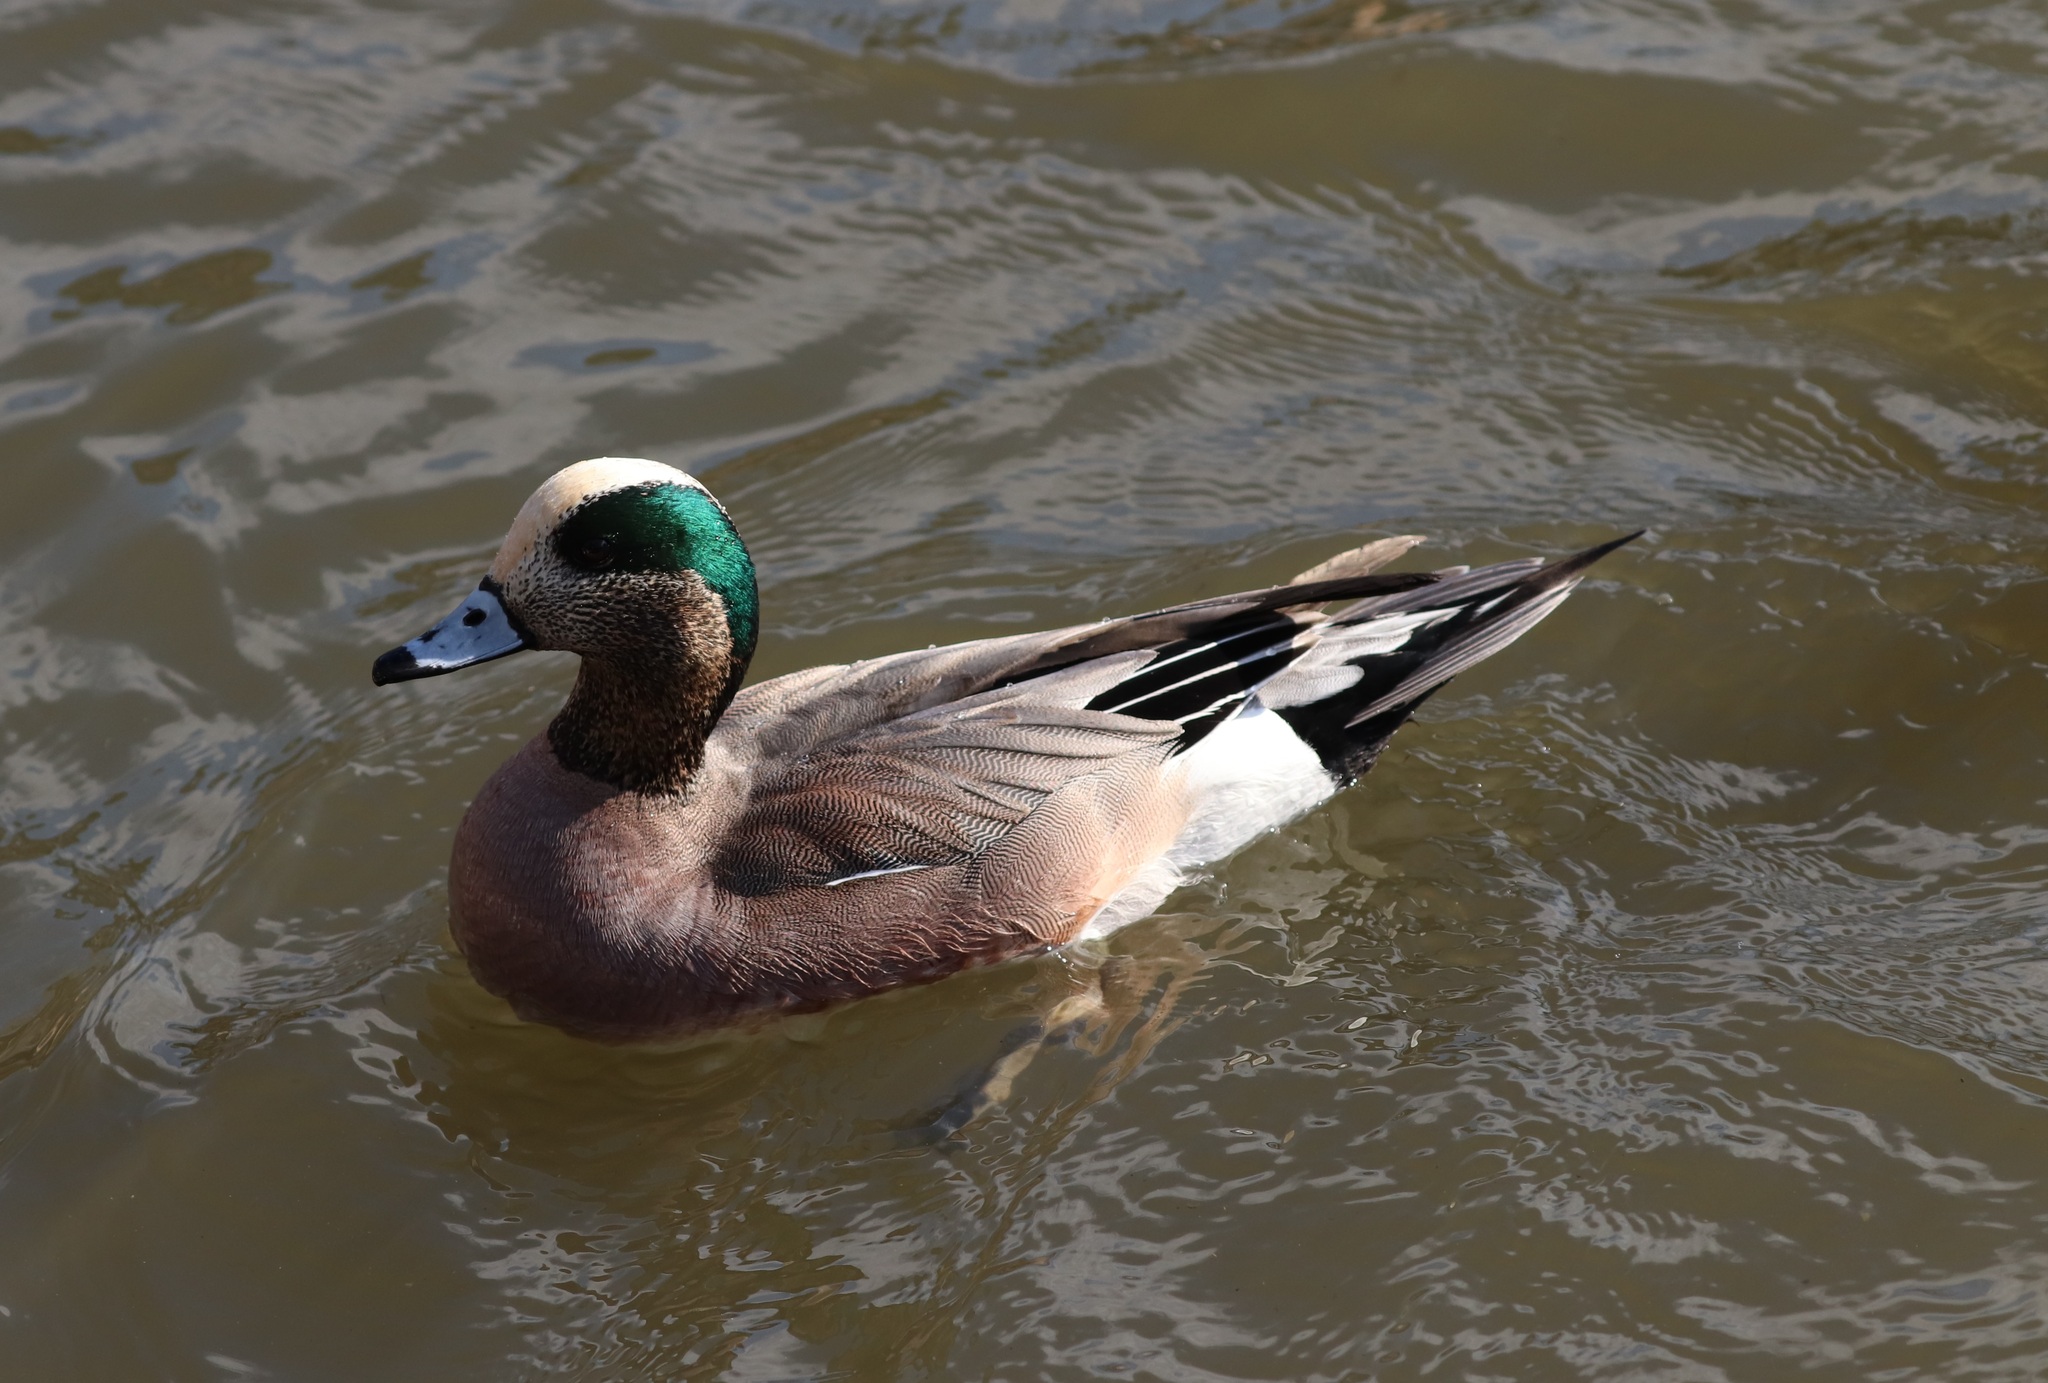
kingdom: Animalia
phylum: Chordata
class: Aves
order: Anseriformes
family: Anatidae
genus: Mareca
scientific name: Mareca americana
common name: American wigeon
